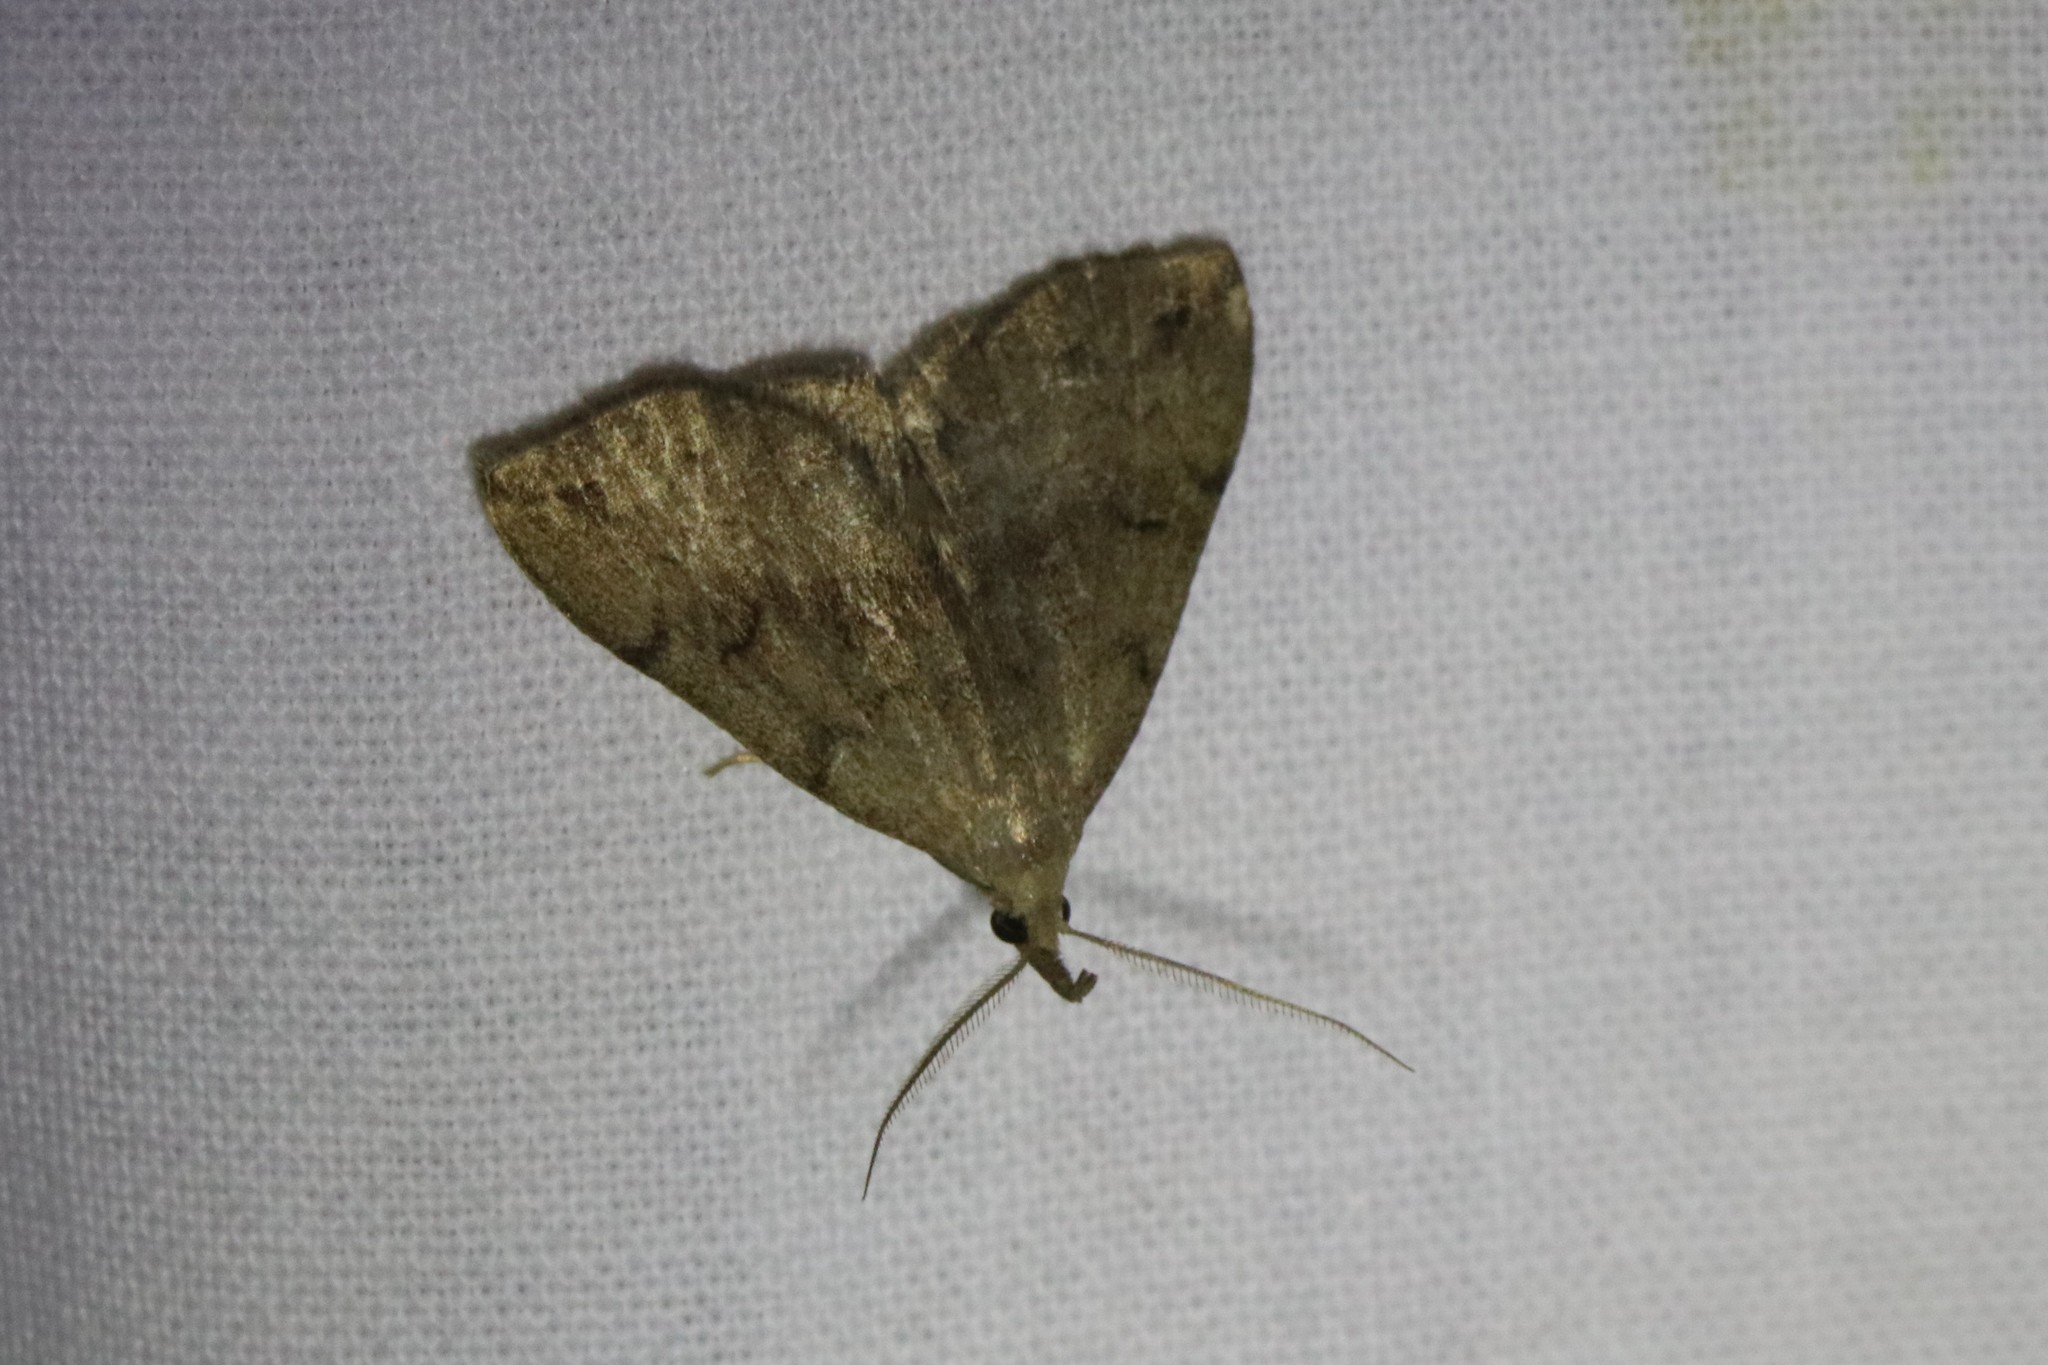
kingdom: Animalia
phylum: Arthropoda
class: Insecta
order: Lepidoptera
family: Erebidae
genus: Phalaenostola
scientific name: Phalaenostola eumelusalis
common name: Dark phalaenostola moth
